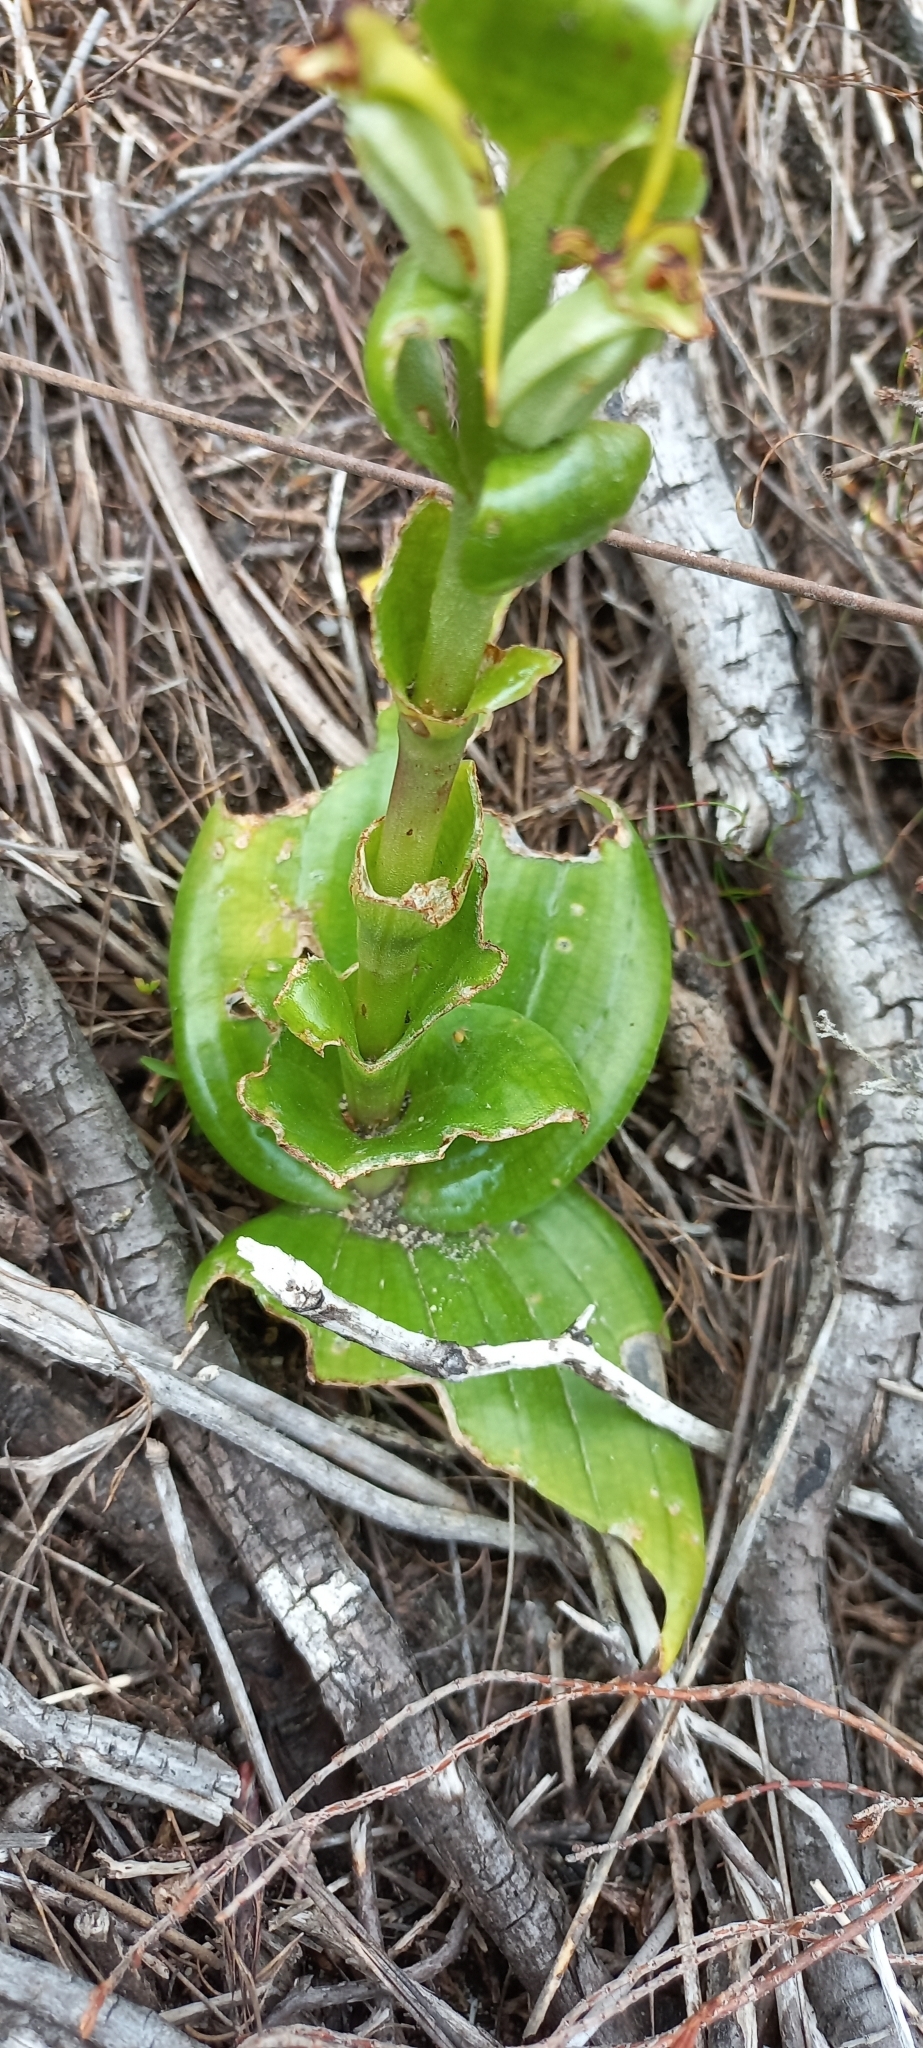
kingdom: Plantae
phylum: Tracheophyta
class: Liliopsida
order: Asparagales
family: Orchidaceae
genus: Satyrium
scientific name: Satyrium odorum
